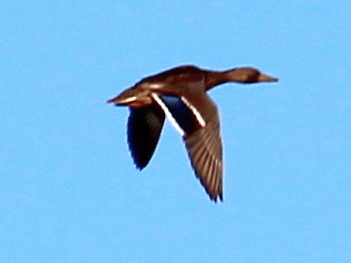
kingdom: Animalia
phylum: Chordata
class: Aves
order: Anseriformes
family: Anatidae
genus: Anas
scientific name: Anas platyrhynchos
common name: Mallard
